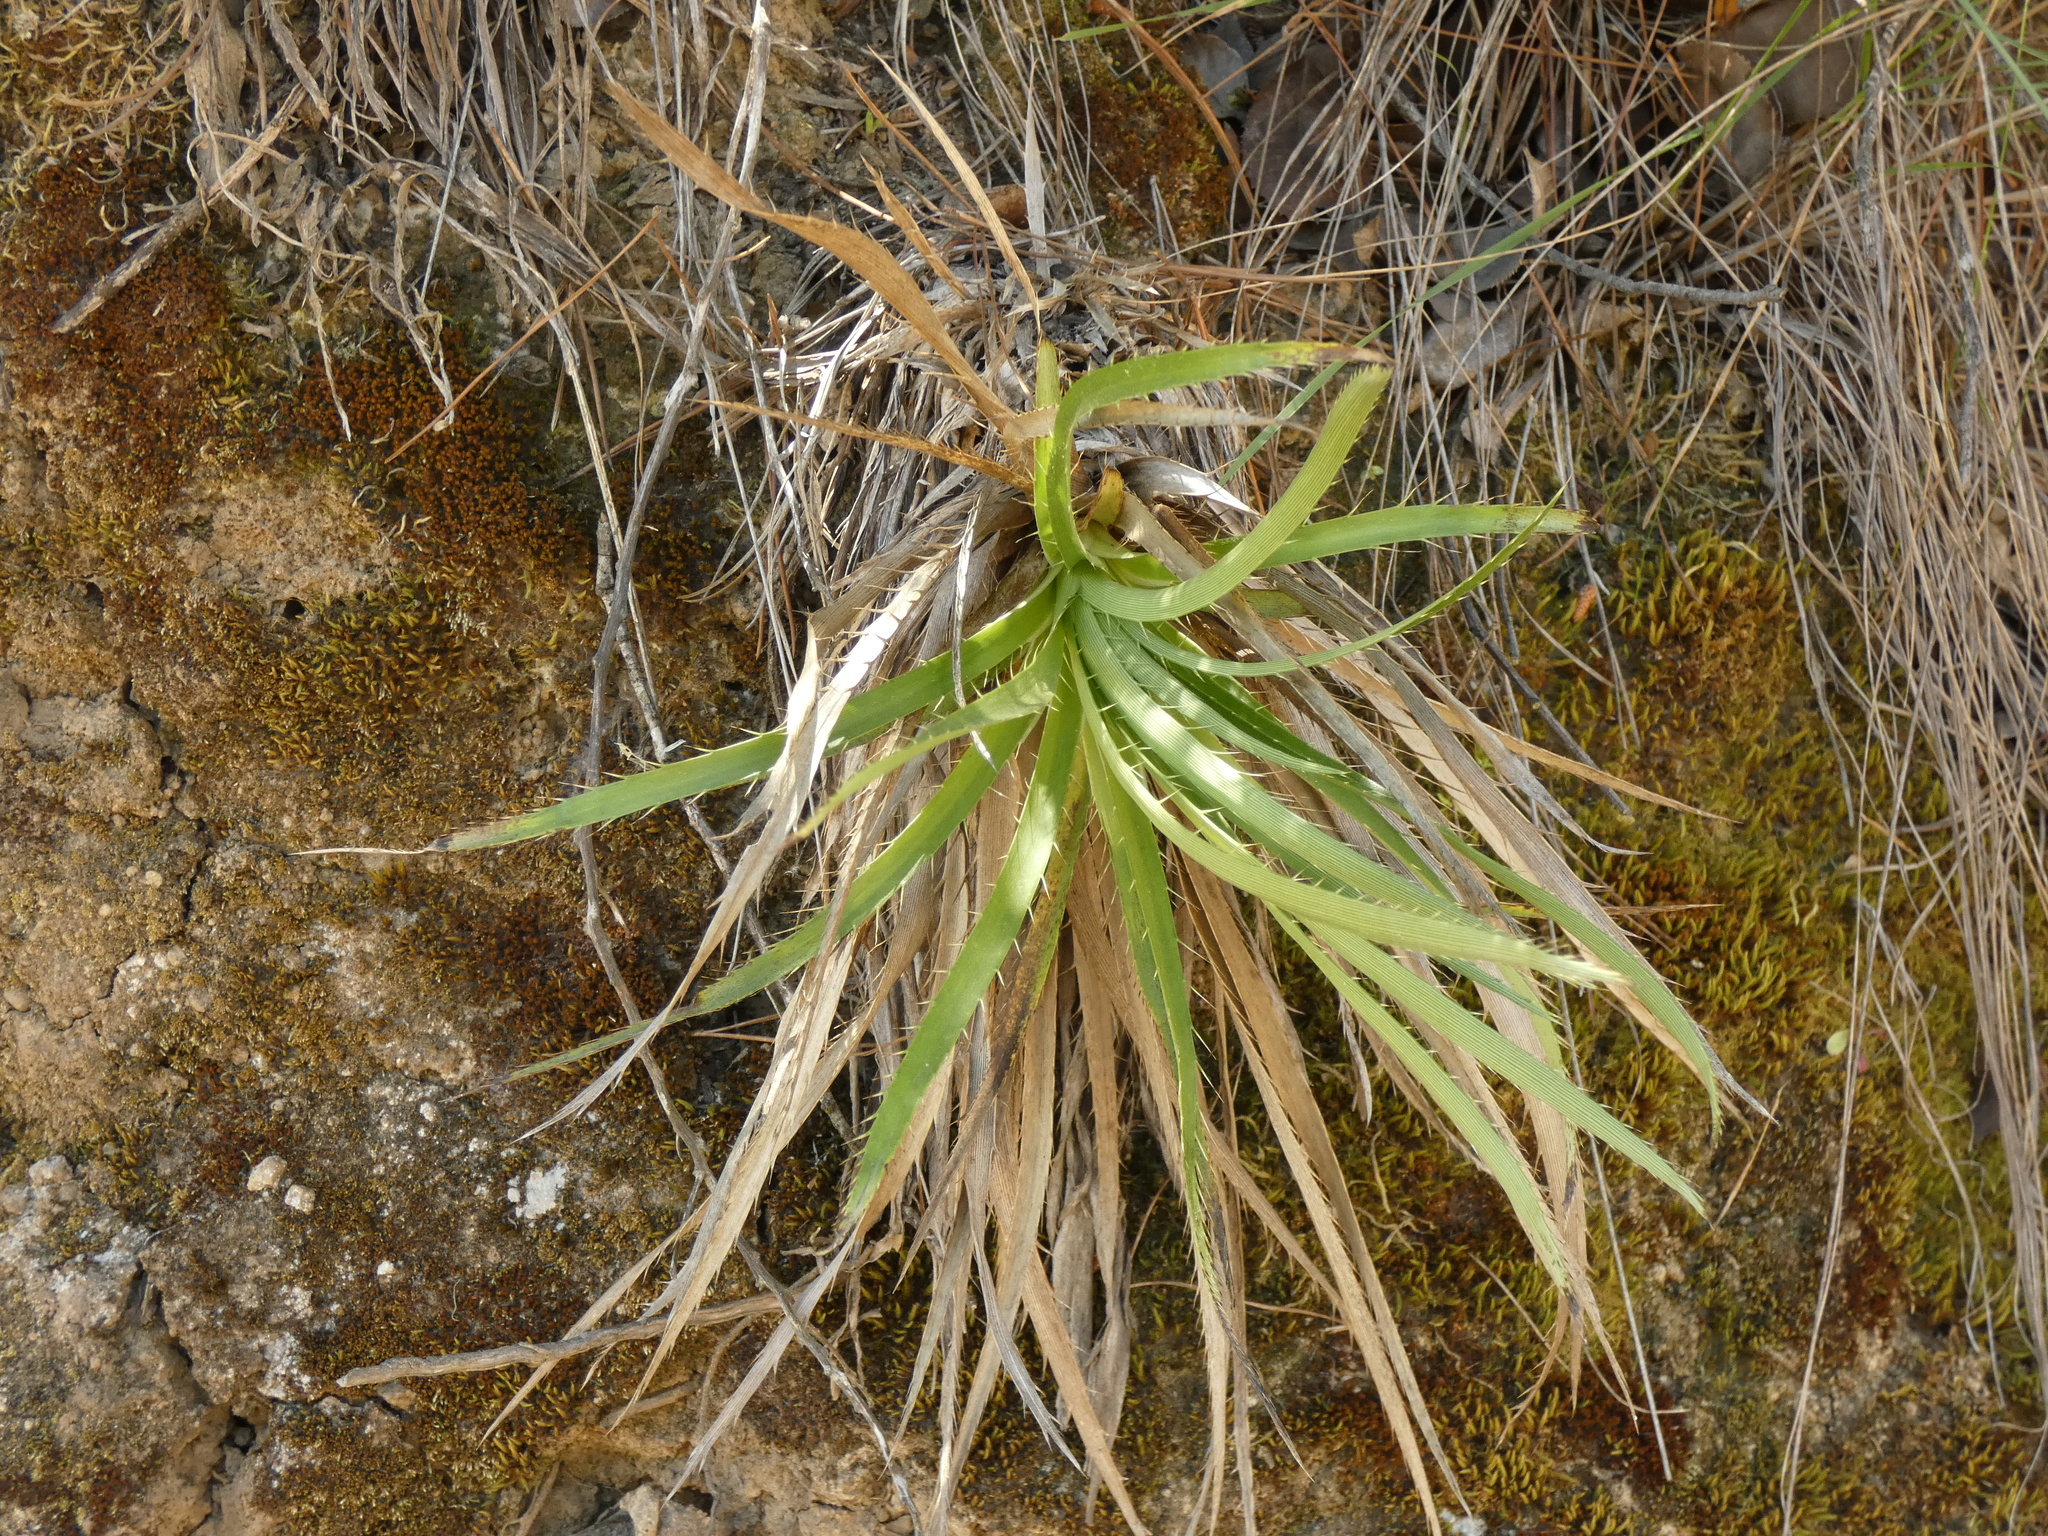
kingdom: Plantae
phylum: Tracheophyta
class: Magnoliopsida
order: Apiales
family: Apiaceae
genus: Eryngium
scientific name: Eryngium humboldtii
